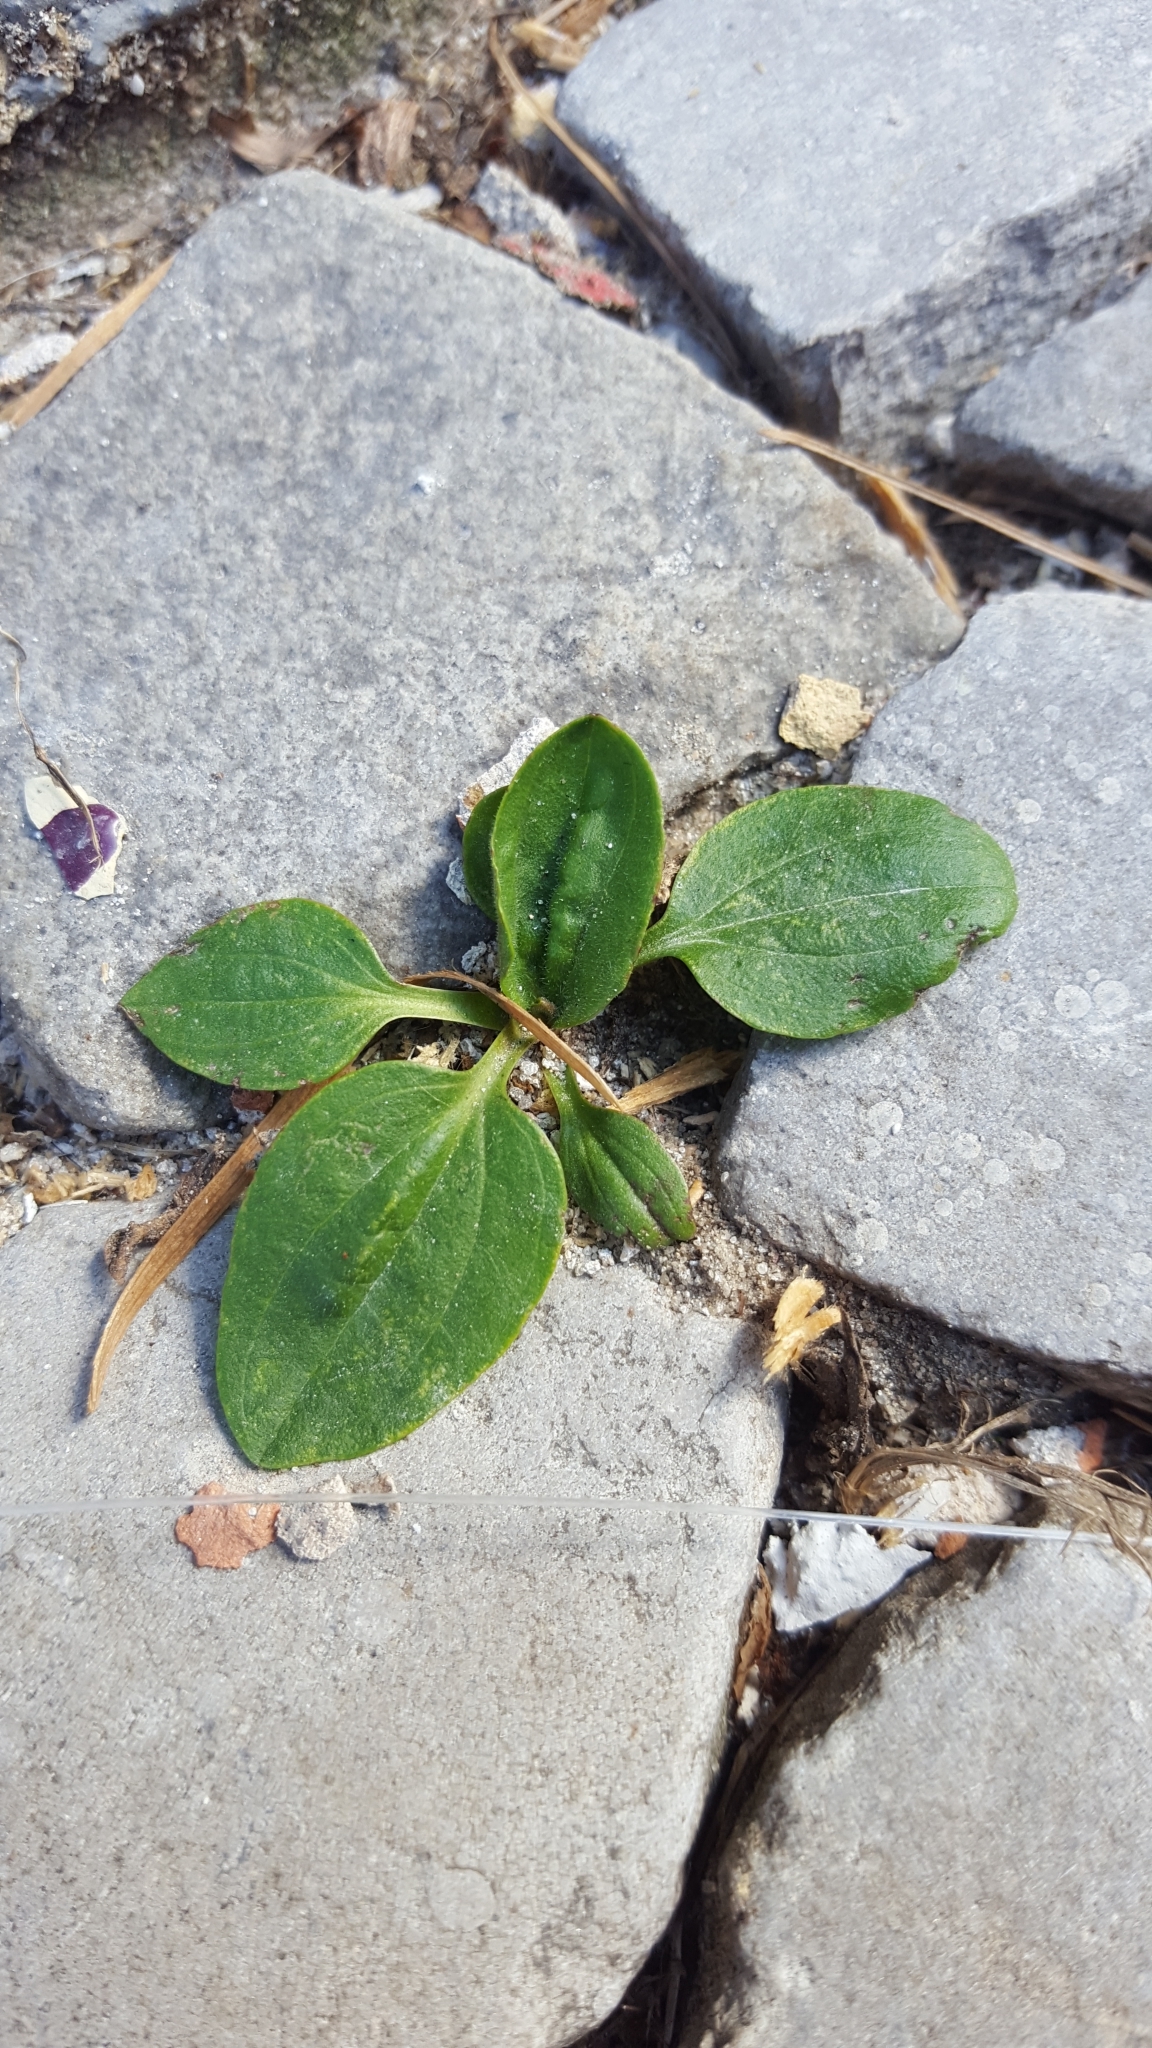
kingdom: Plantae
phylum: Tracheophyta
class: Magnoliopsida
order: Lamiales
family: Plantaginaceae
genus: Plantago
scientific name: Plantago major
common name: Common plantain
